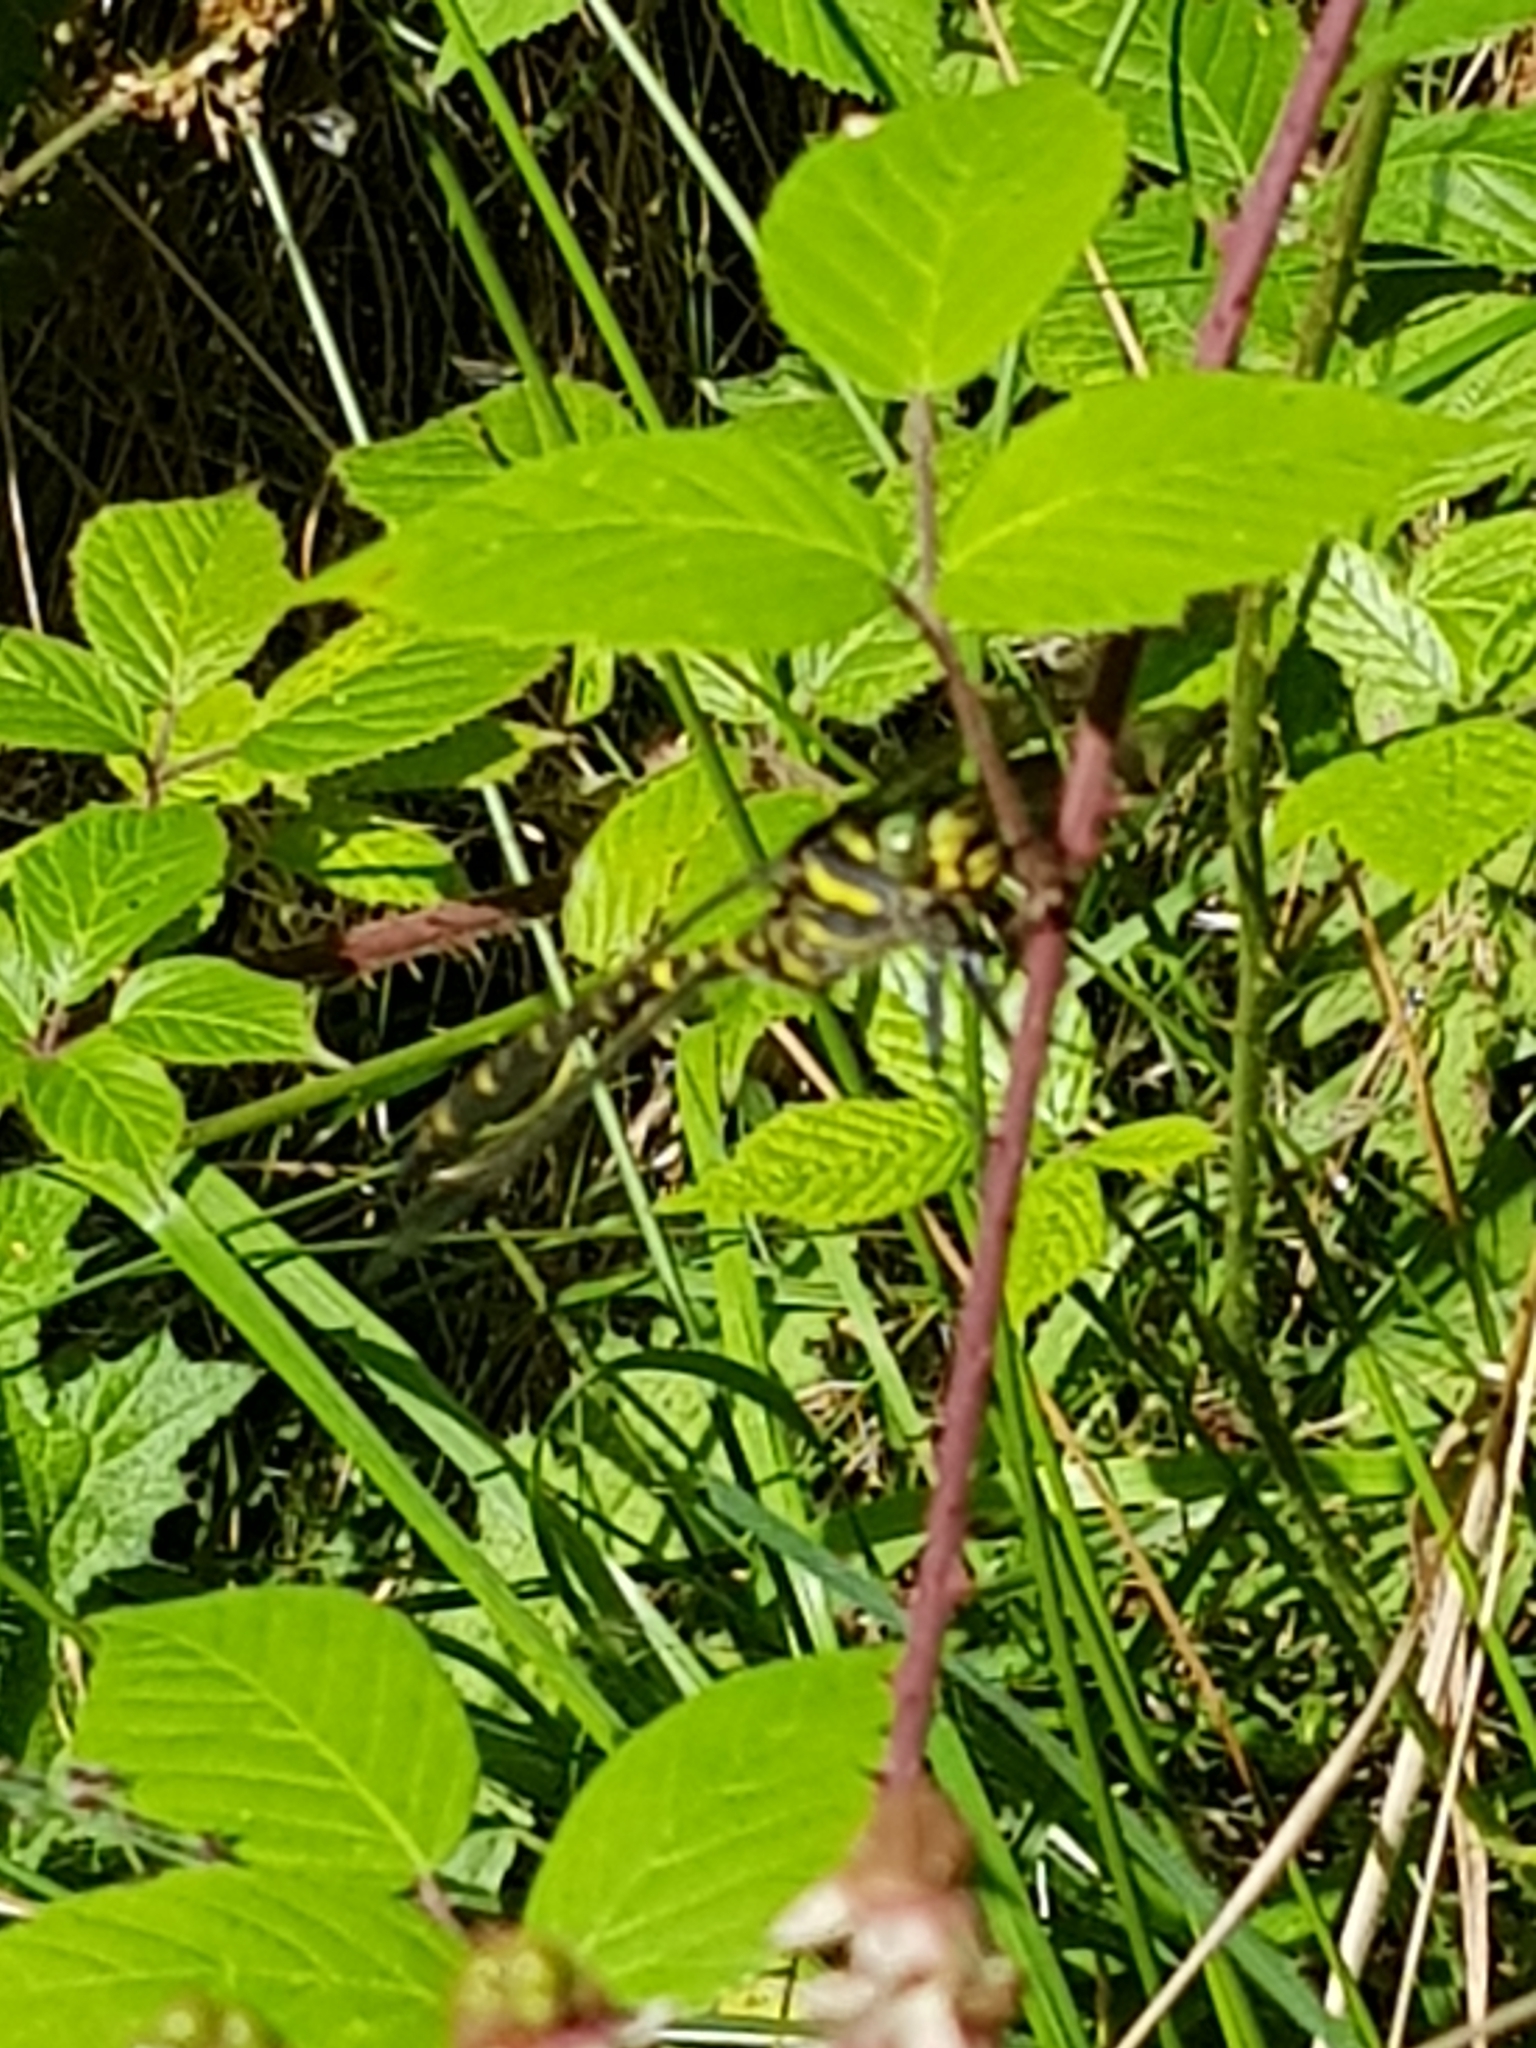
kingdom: Animalia
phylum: Arthropoda
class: Insecta
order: Odonata
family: Cordulegastridae
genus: Cordulegaster
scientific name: Cordulegaster boltonii
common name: Golden-ringed dragonfly
